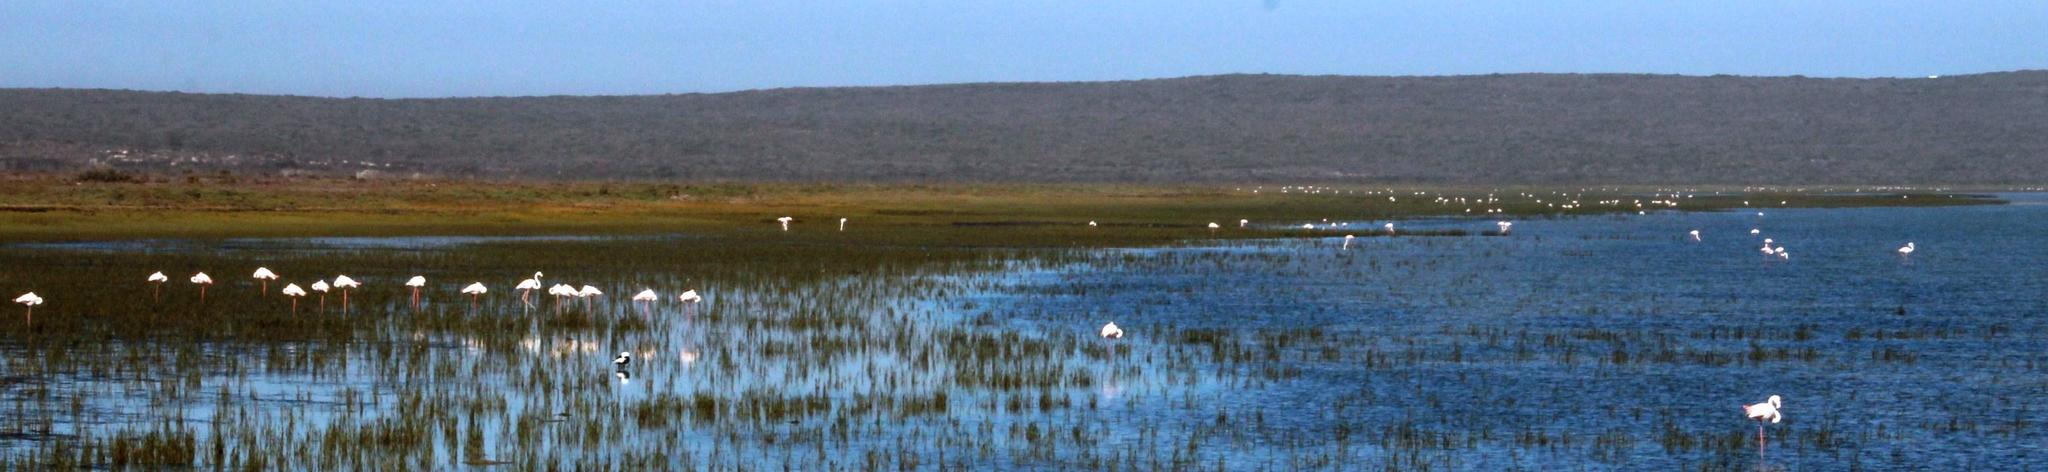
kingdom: Animalia
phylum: Chordata
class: Aves
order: Phoenicopteriformes
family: Phoenicopteridae
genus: Phoenicopterus
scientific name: Phoenicopterus roseus
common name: Greater flamingo
